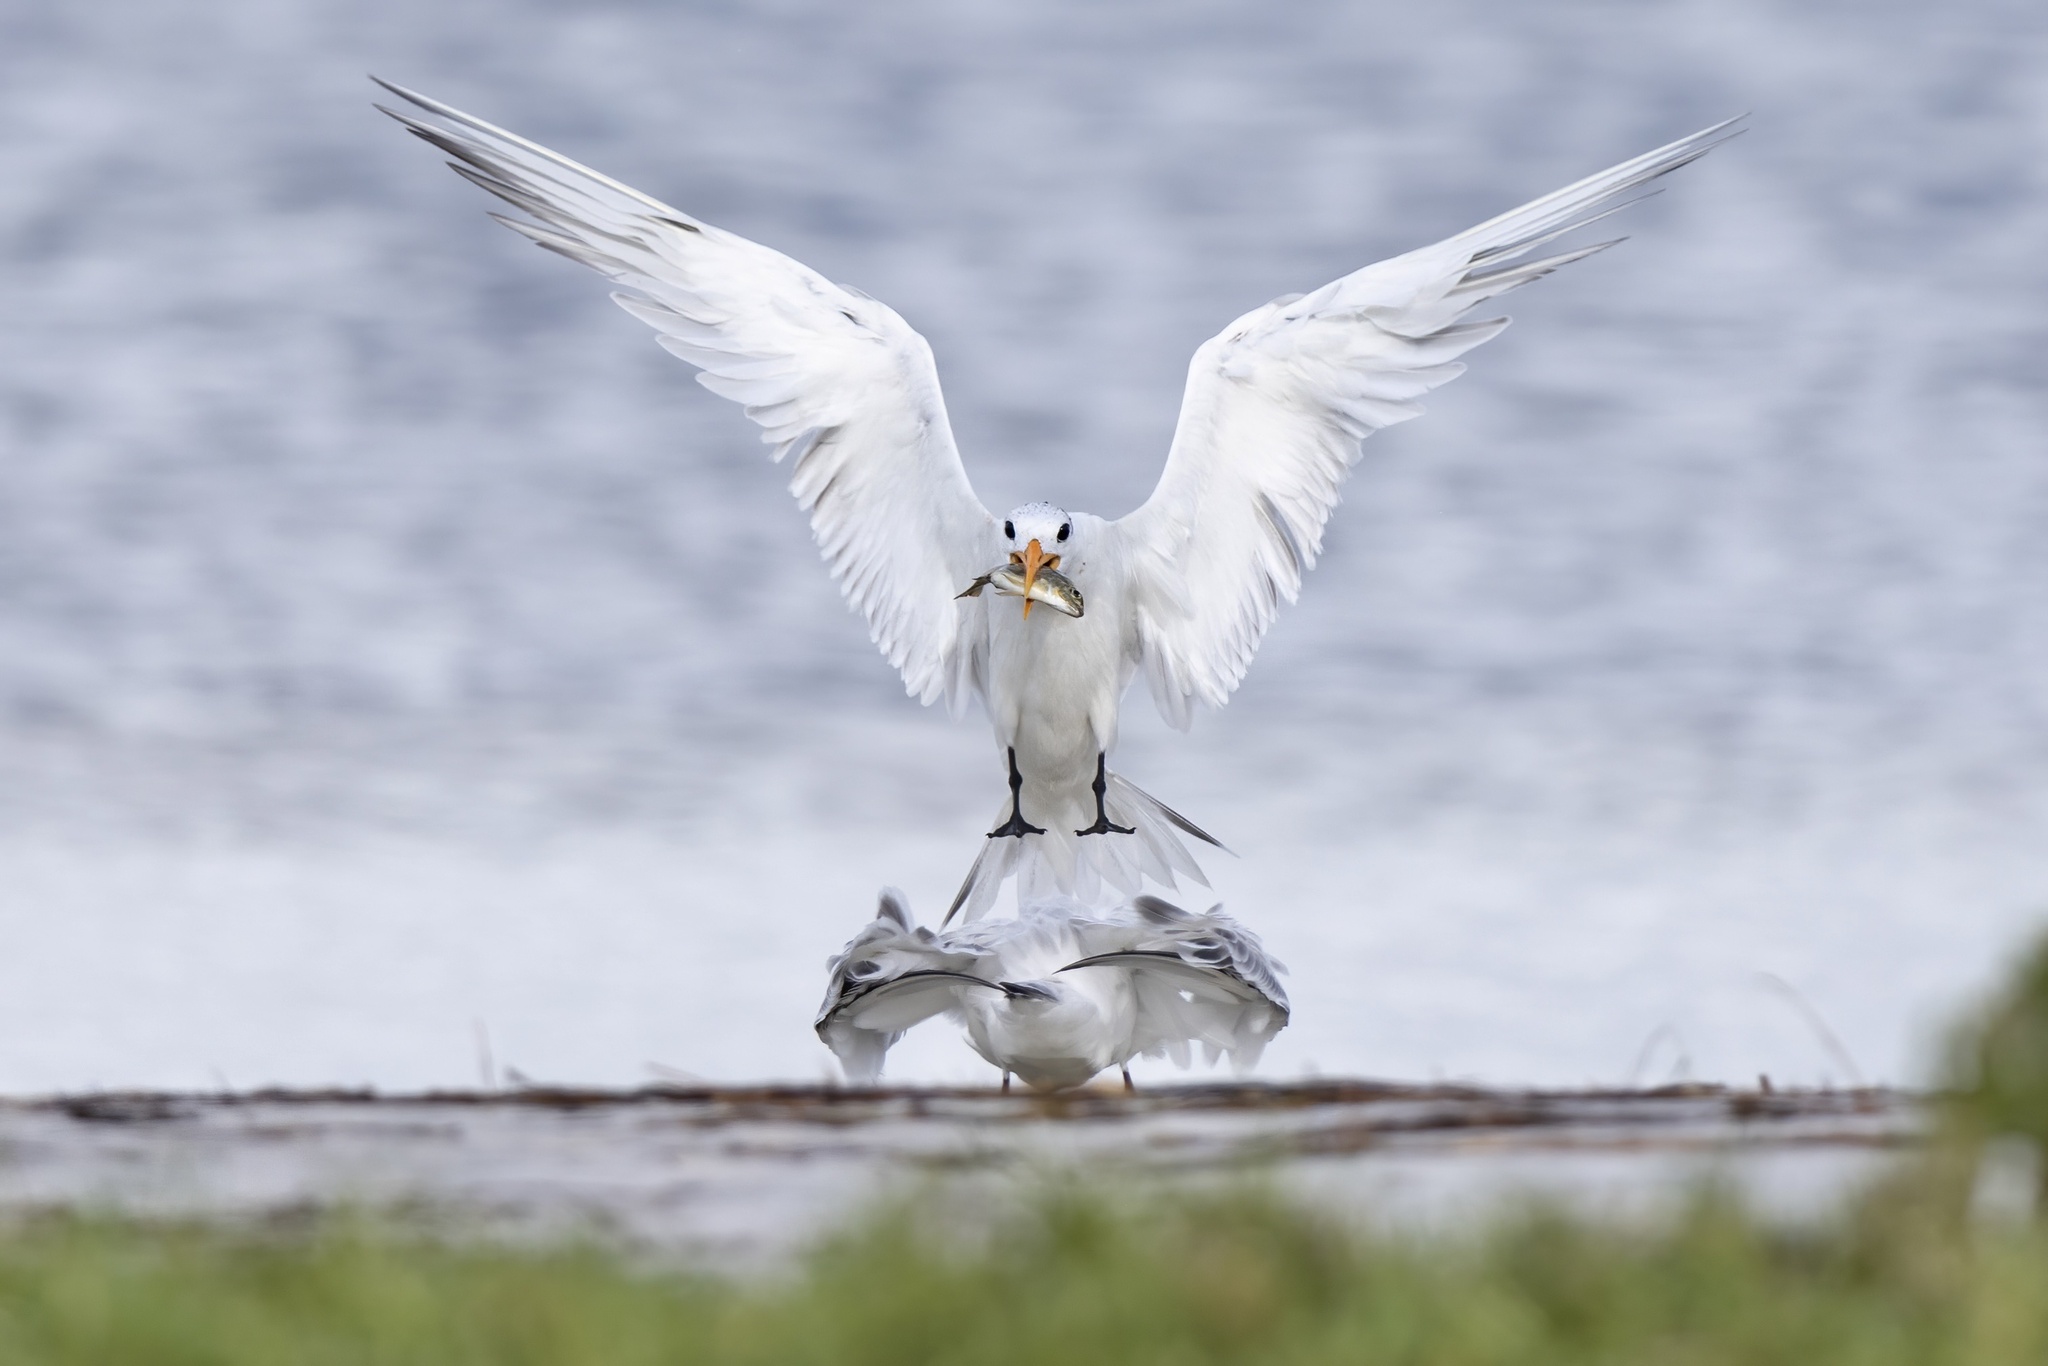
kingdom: Animalia
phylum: Chordata
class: Aves
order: Charadriiformes
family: Laridae
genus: Thalasseus
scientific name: Thalasseus maximus
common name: Royal tern
